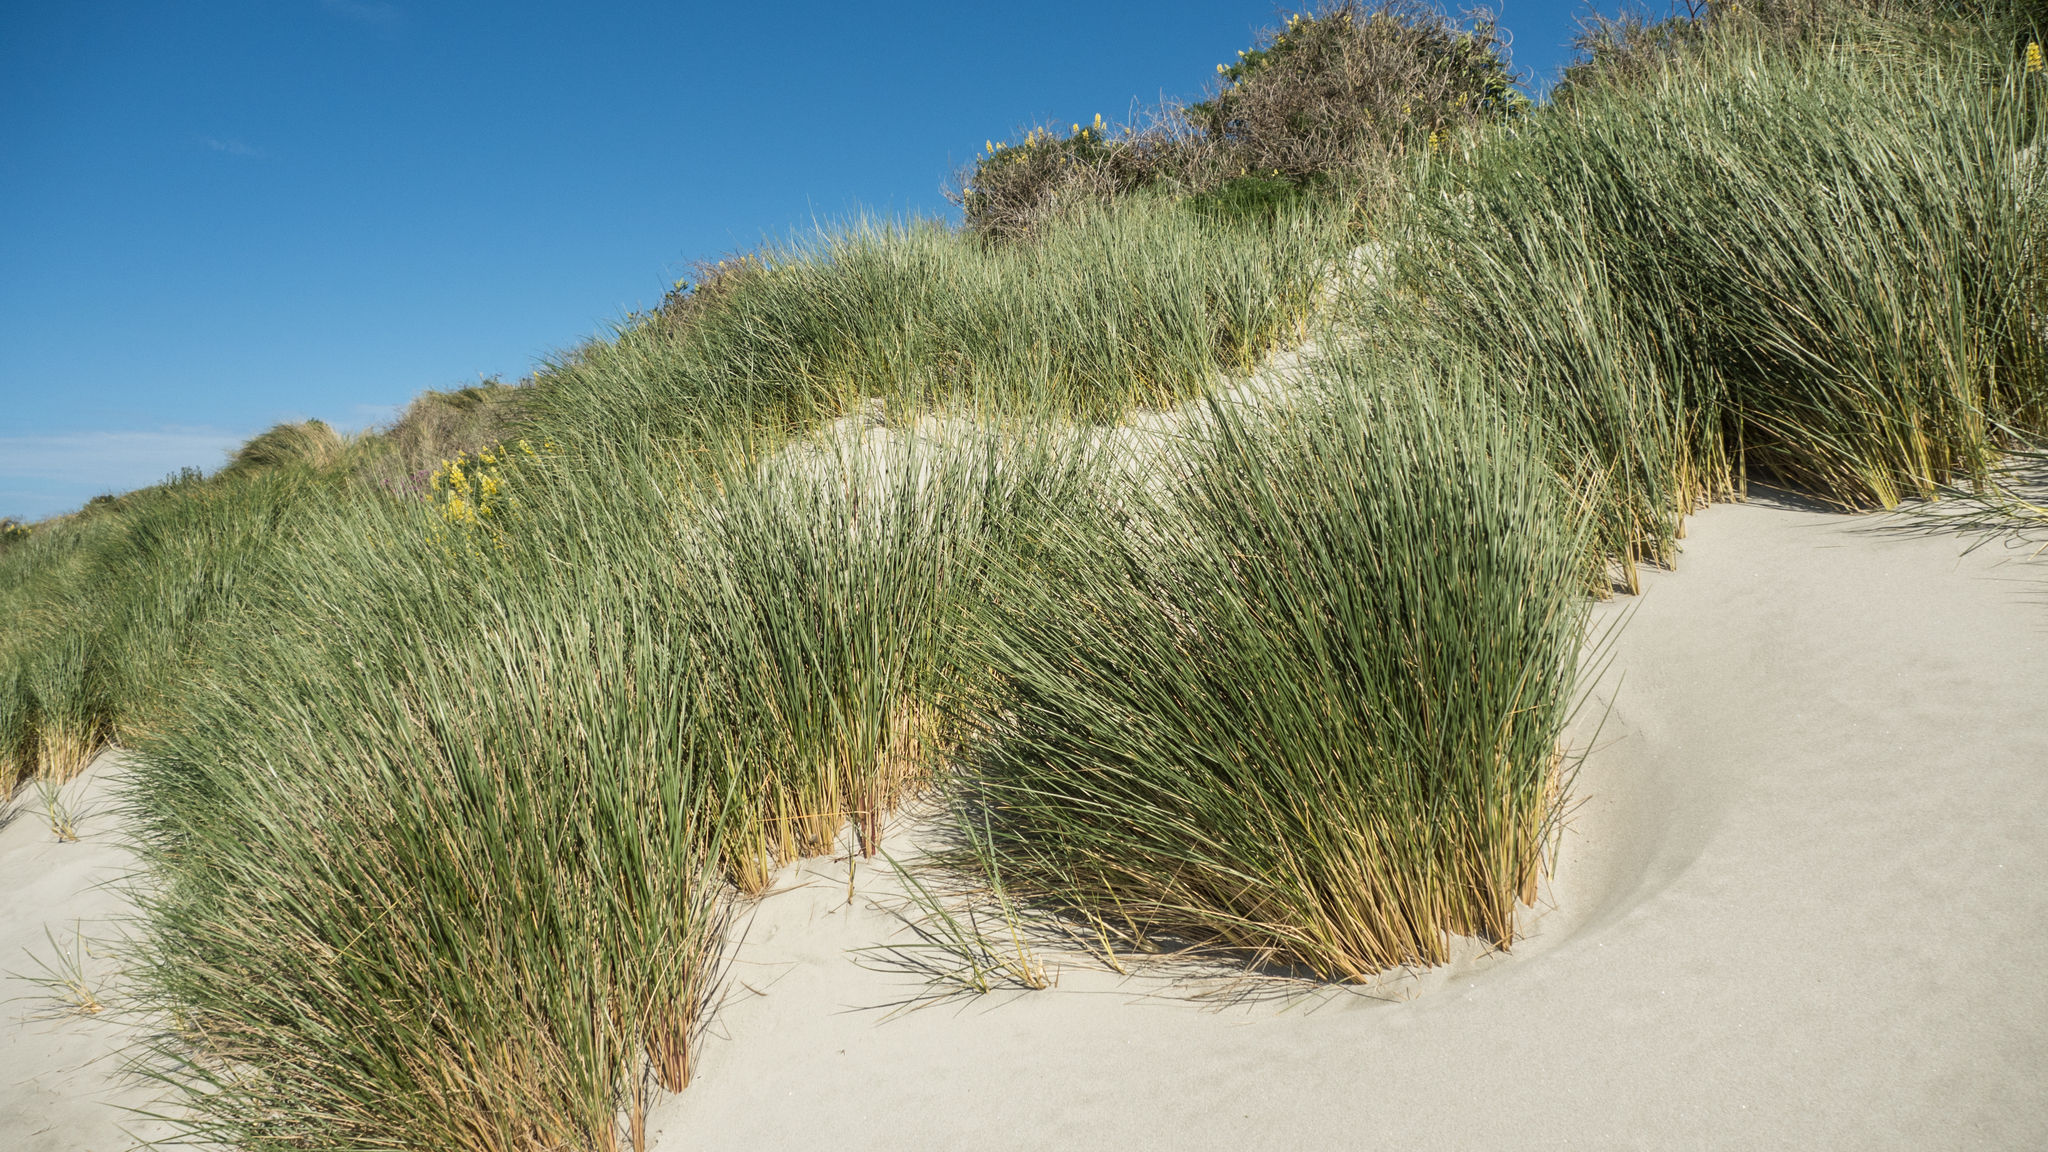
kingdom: Plantae
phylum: Tracheophyta
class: Liliopsida
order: Poales
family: Poaceae
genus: Calamagrostis
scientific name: Calamagrostis arenaria
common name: European beachgrass
